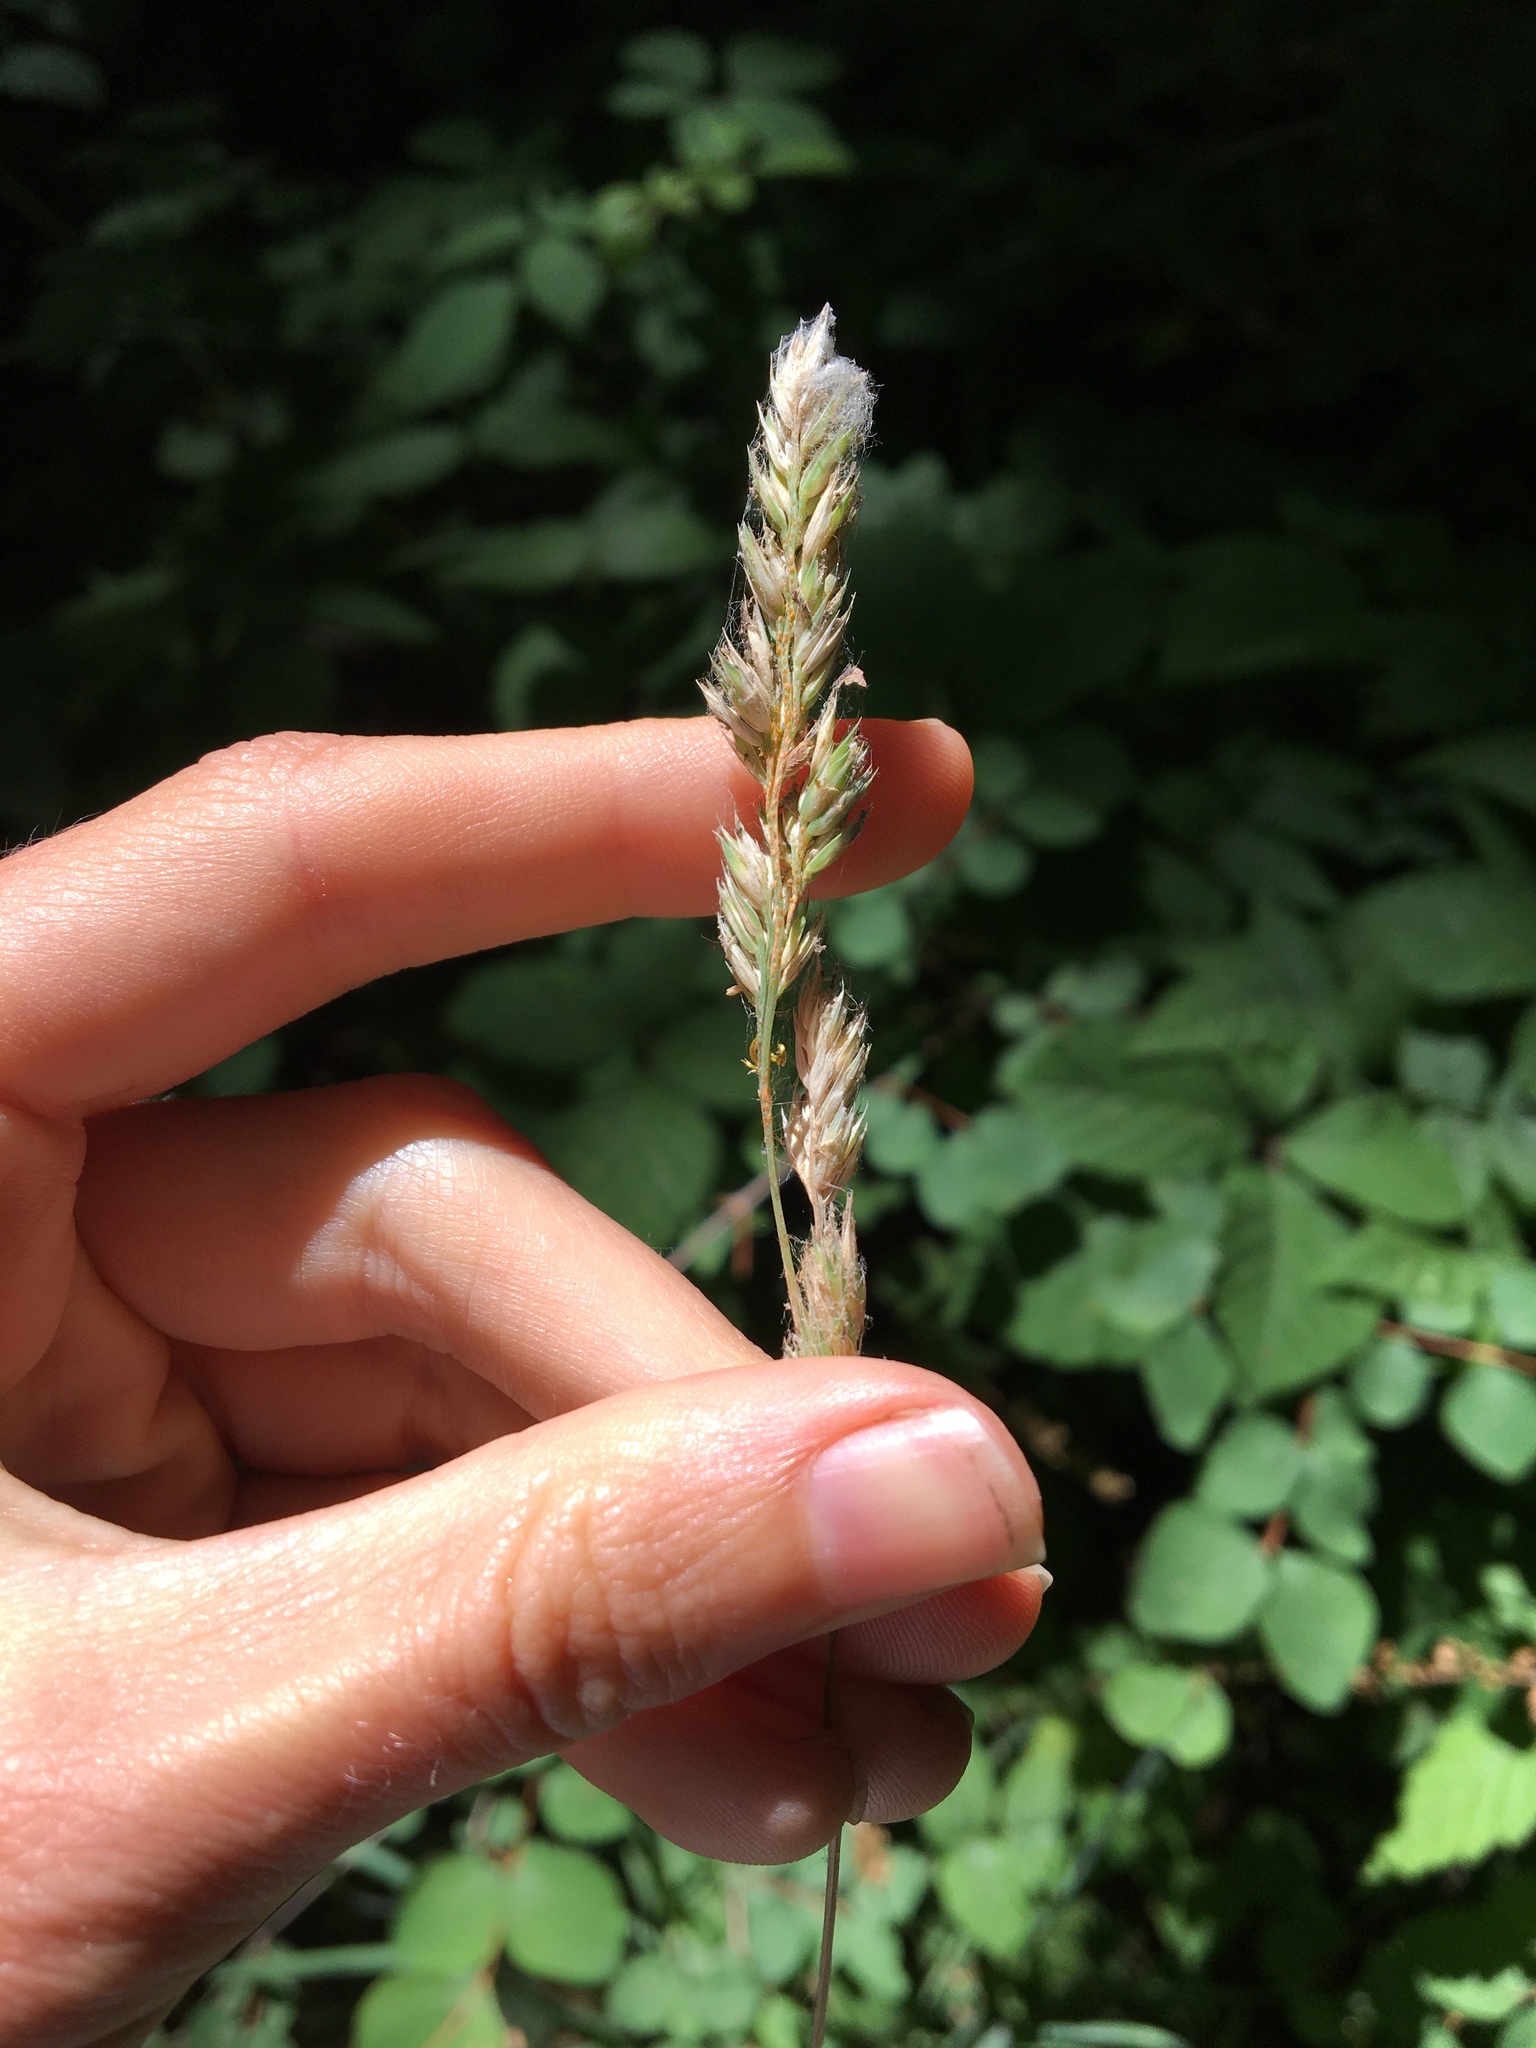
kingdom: Plantae
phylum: Tracheophyta
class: Liliopsida
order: Poales
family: Poaceae
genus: Dactylis
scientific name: Dactylis glomerata
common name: Orchardgrass
